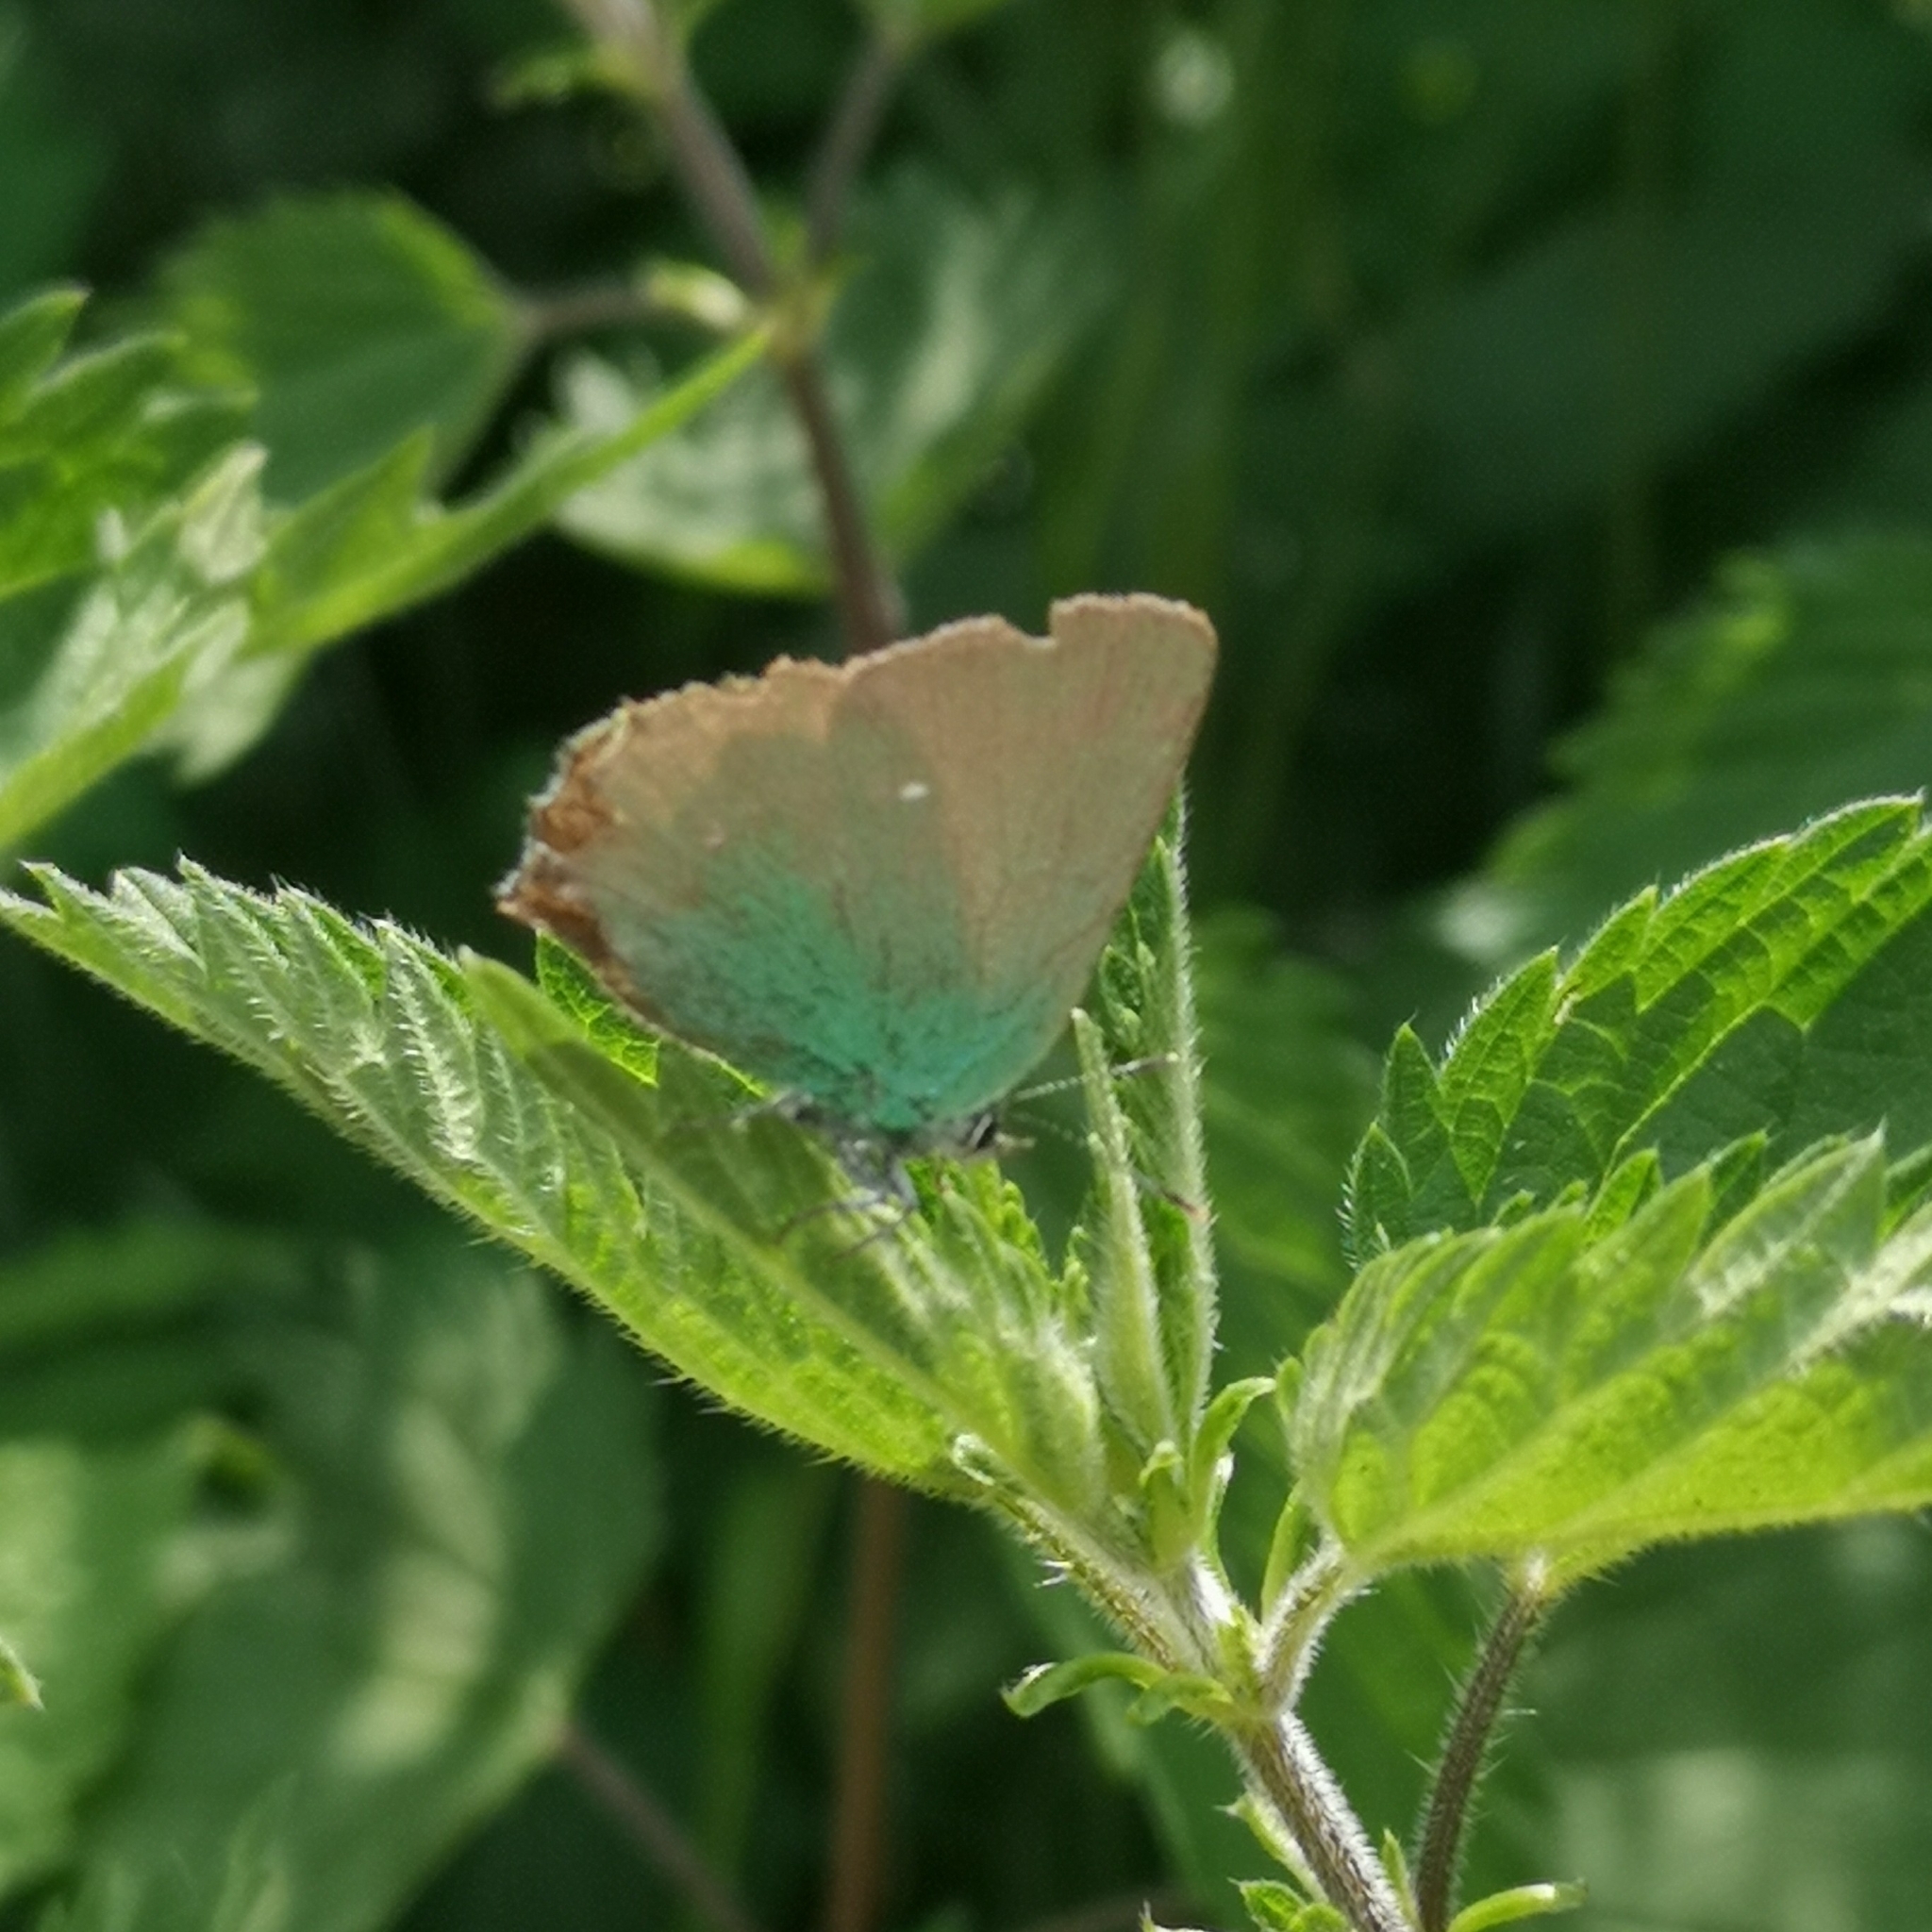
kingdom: Animalia
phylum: Arthropoda
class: Insecta
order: Lepidoptera
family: Lycaenidae
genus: Callophrys
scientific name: Callophrys rubi
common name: Green hairstreak
